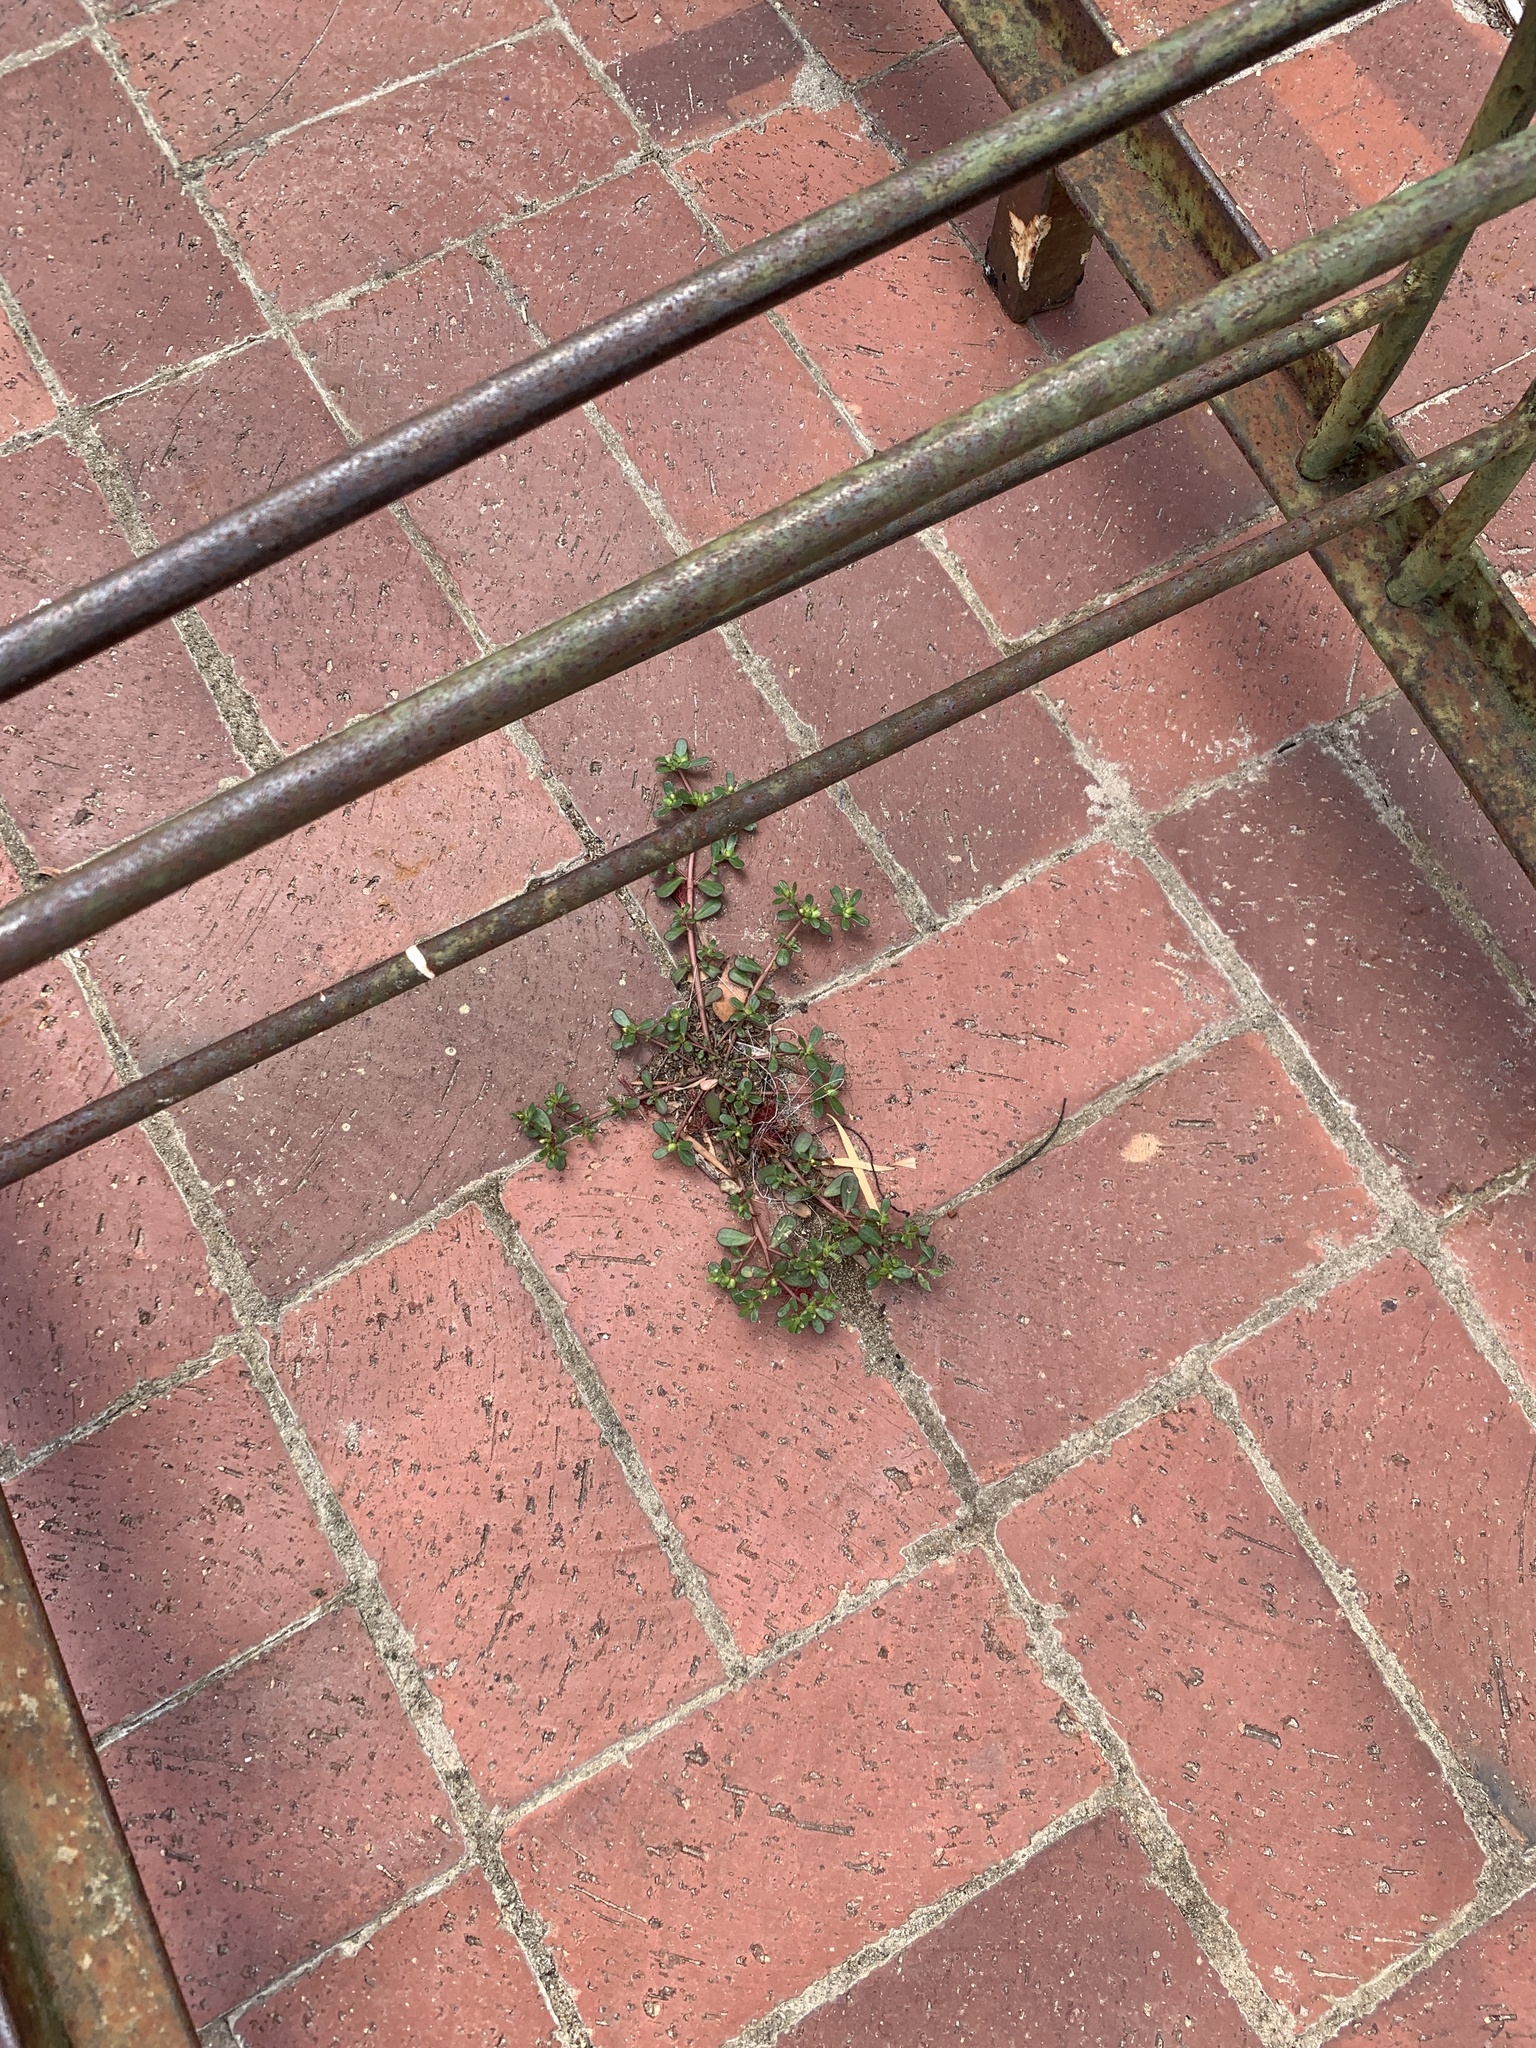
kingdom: Plantae
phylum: Tracheophyta
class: Magnoliopsida
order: Caryophyllales
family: Portulacaceae
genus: Portulaca
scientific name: Portulaca oleracea
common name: Common purslane
